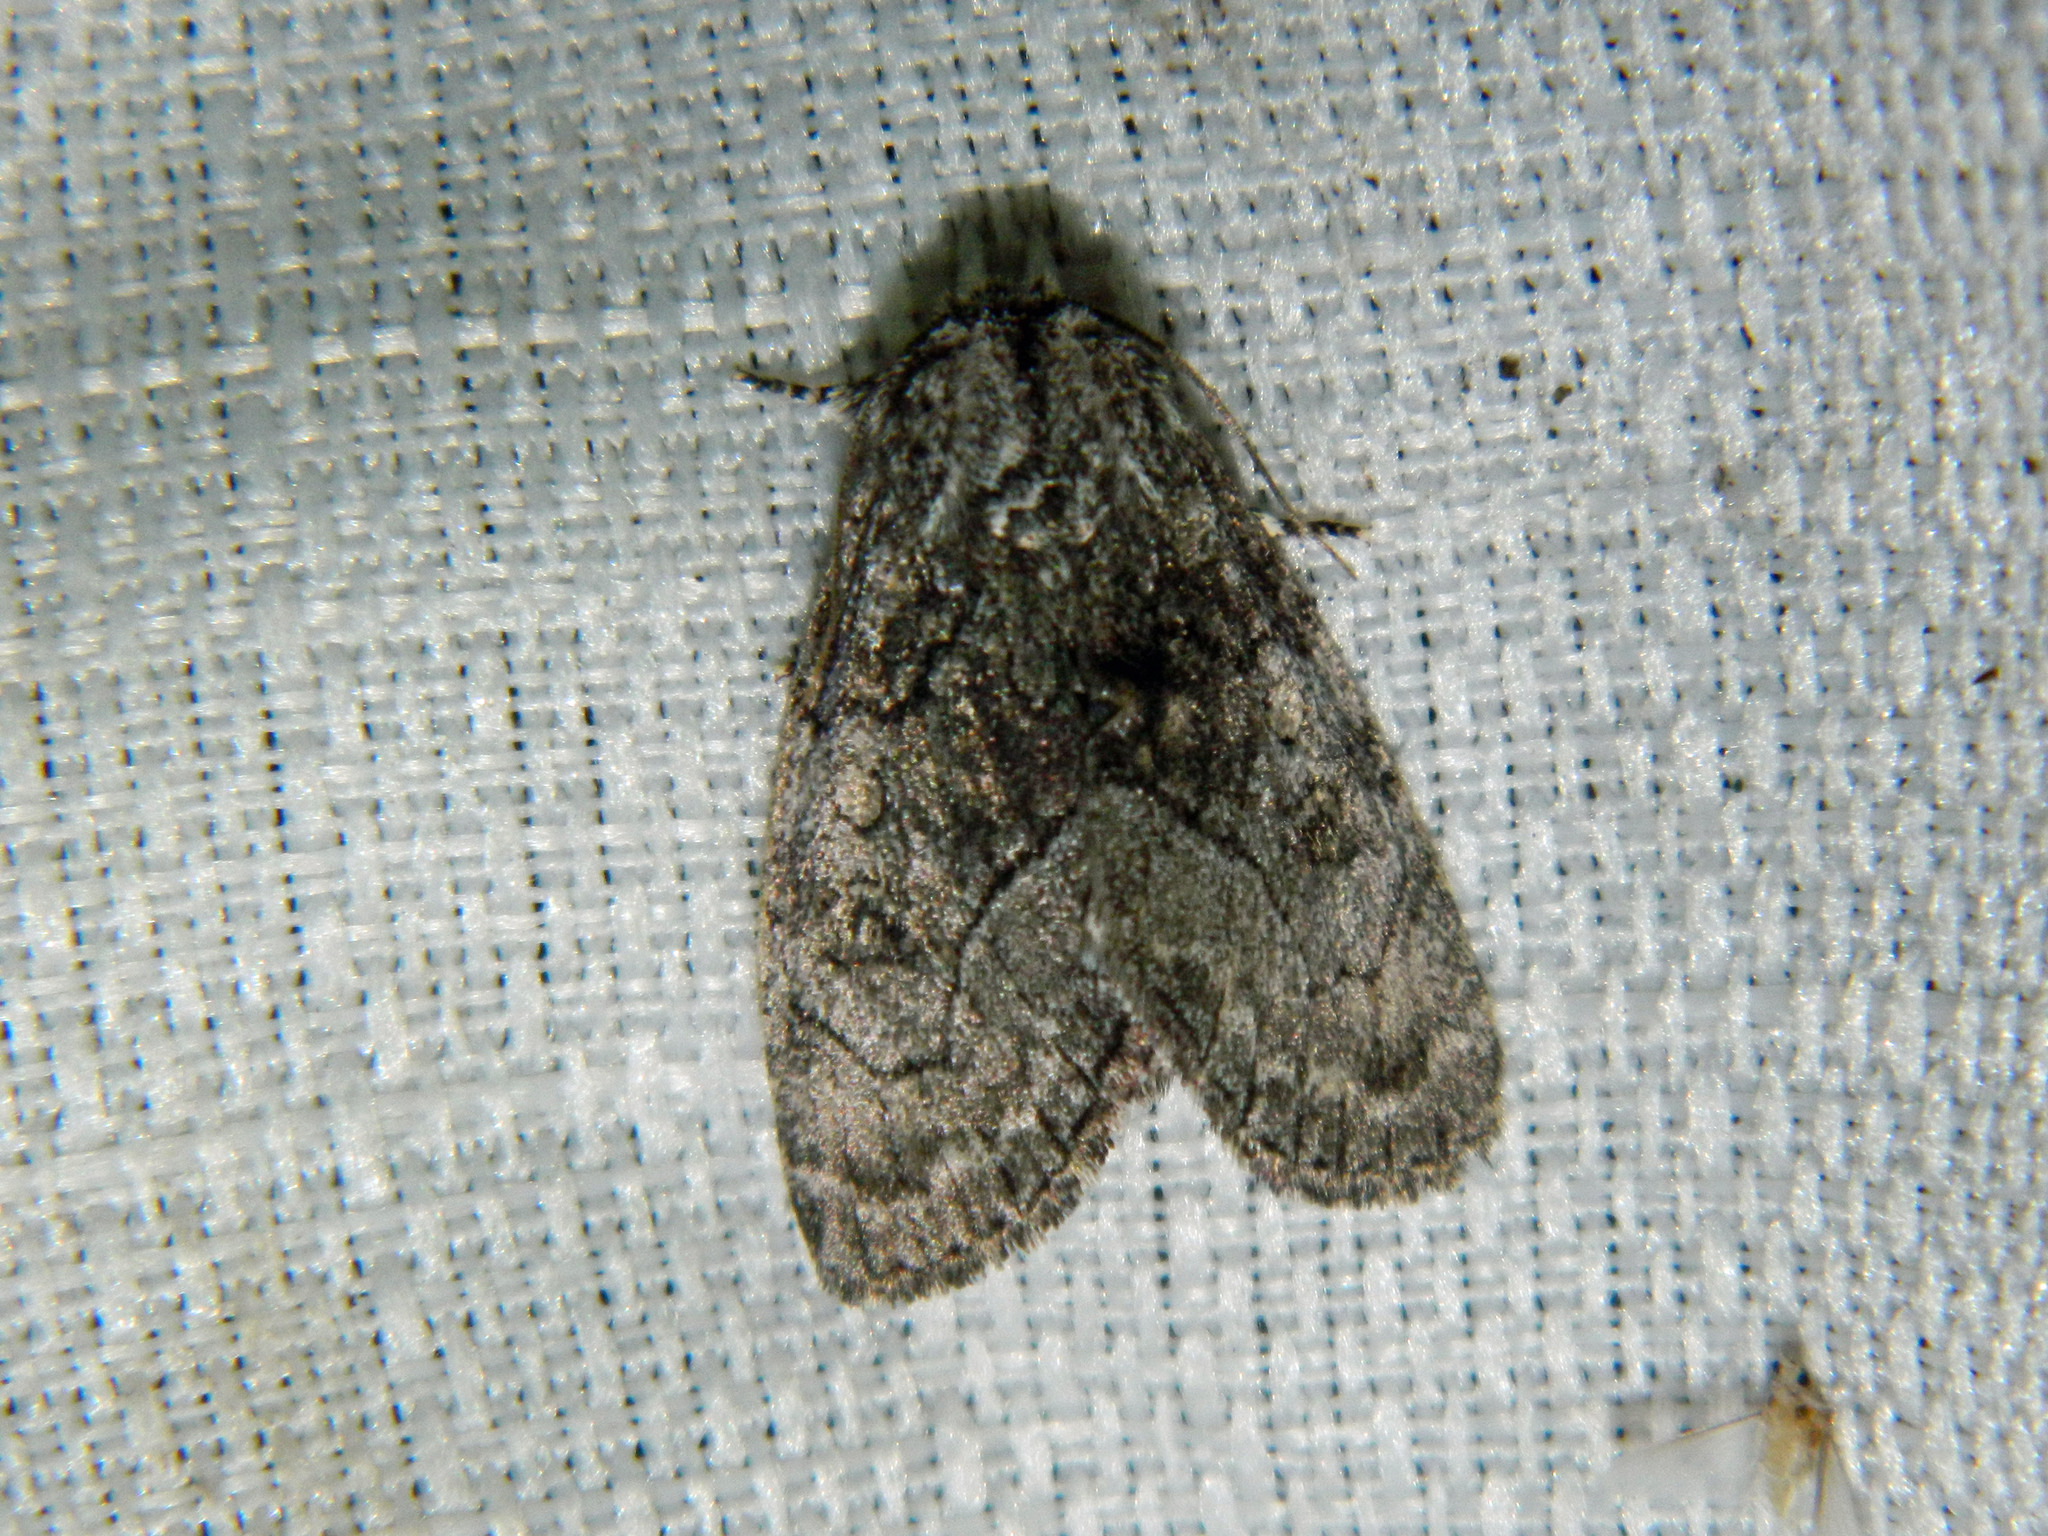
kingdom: Animalia
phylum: Arthropoda
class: Insecta
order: Lepidoptera
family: Noctuidae
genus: Raphia
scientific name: Raphia frater
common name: Brother
